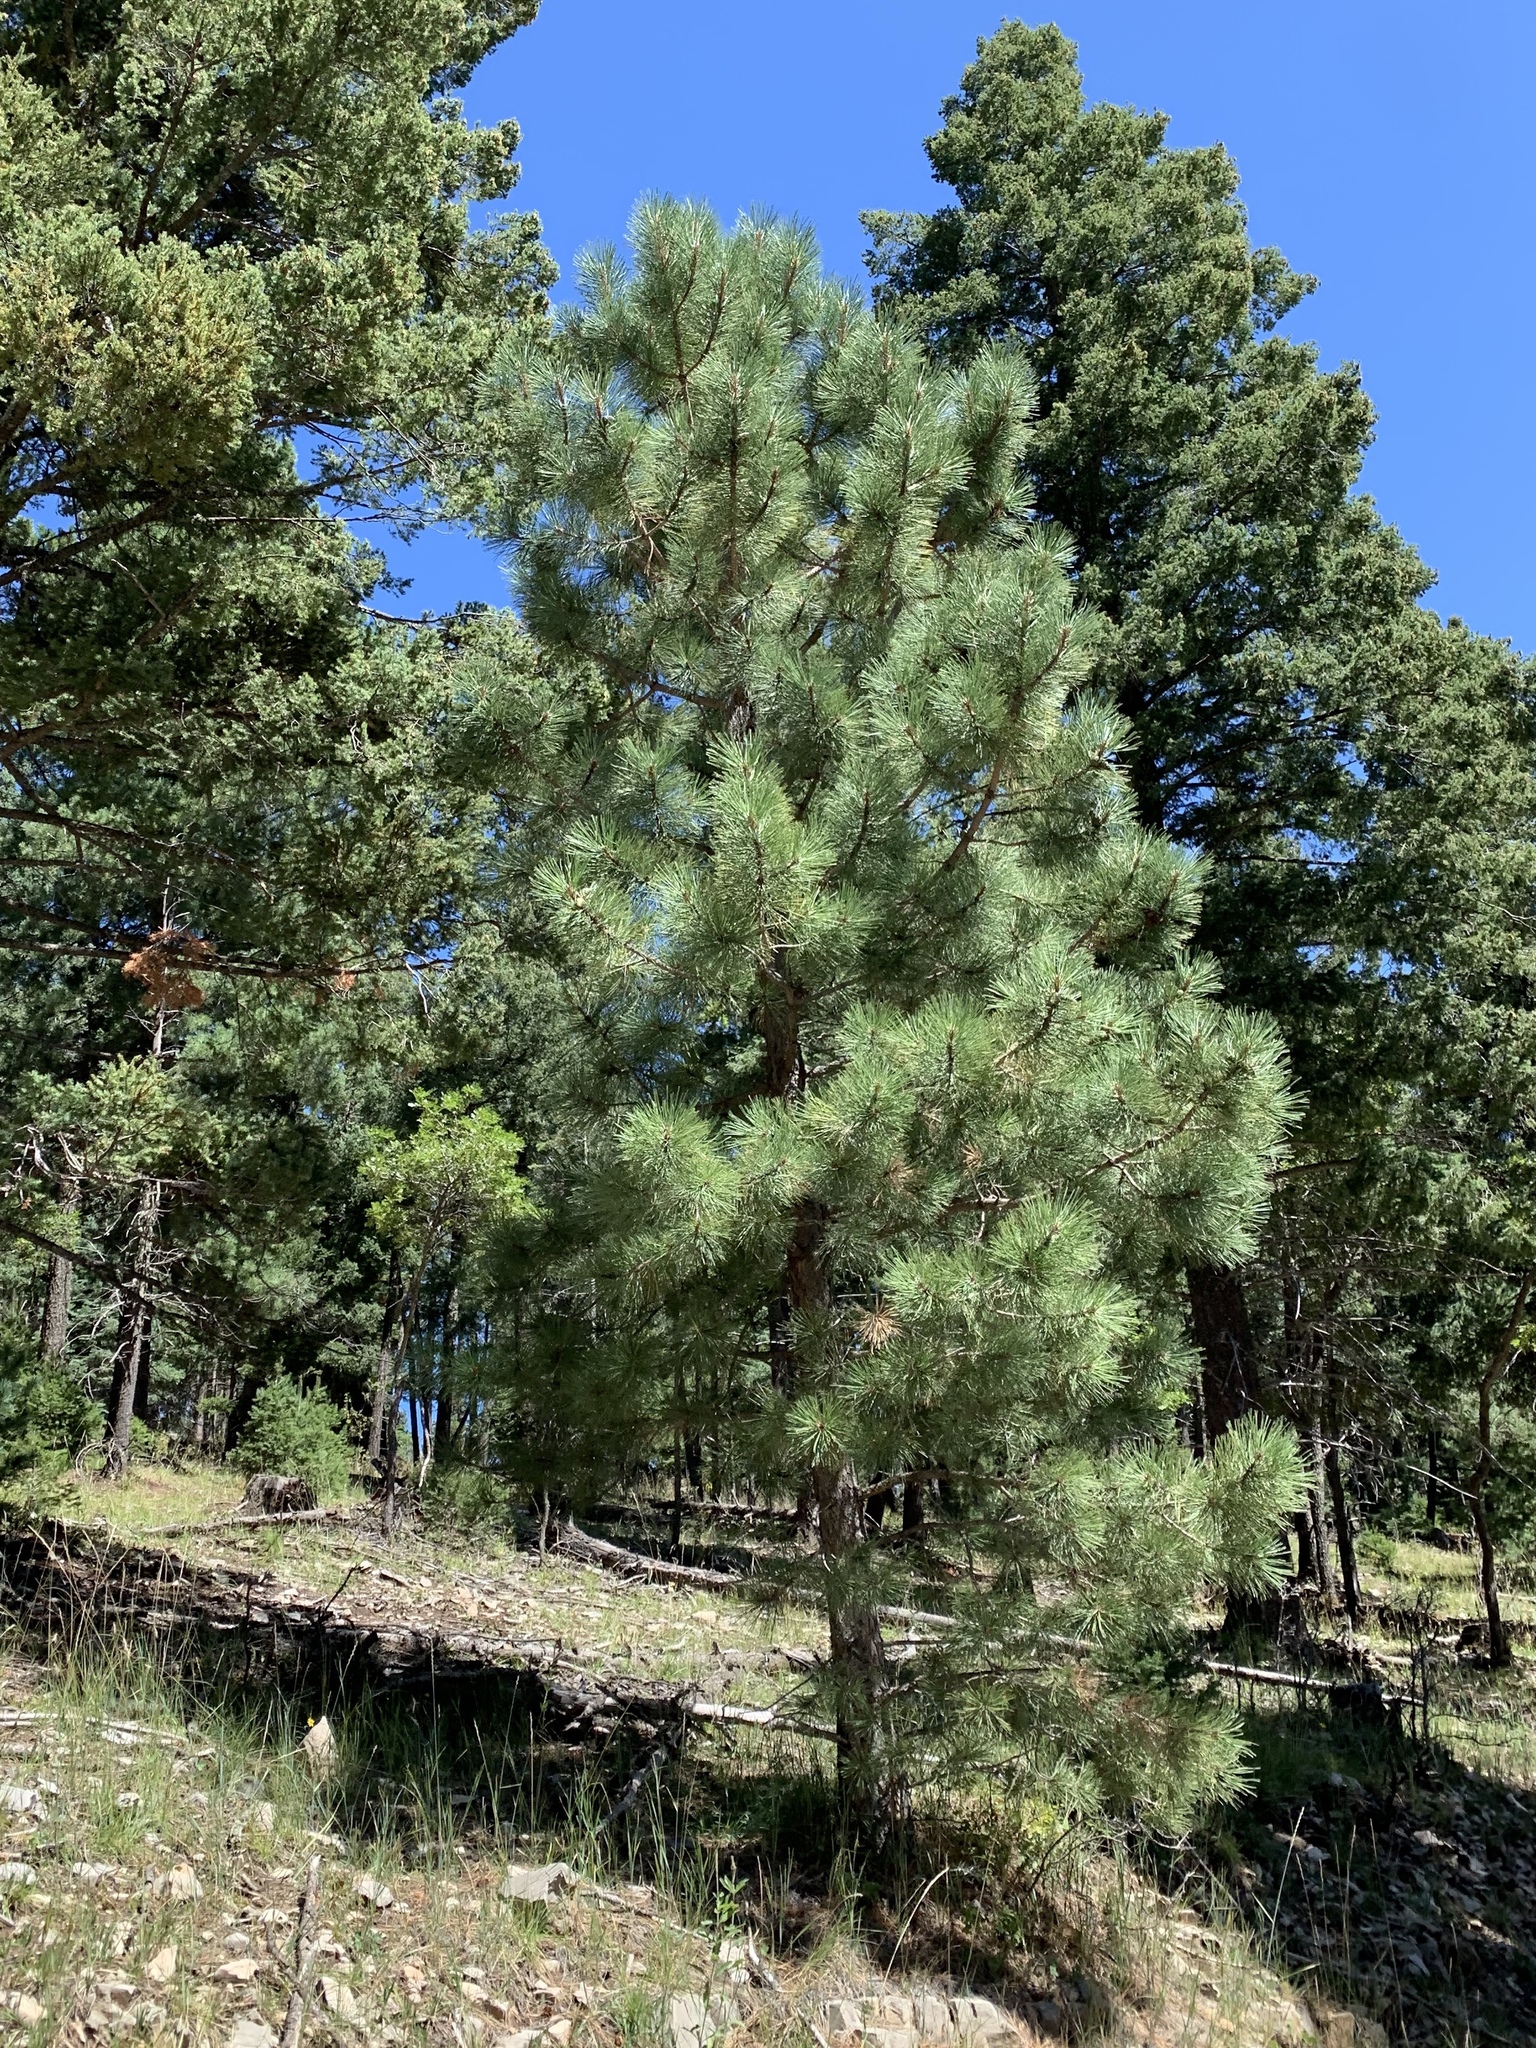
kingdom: Plantae
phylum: Tracheophyta
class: Pinopsida
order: Pinales
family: Pinaceae
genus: Pinus
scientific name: Pinus ponderosa
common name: Western yellow-pine
